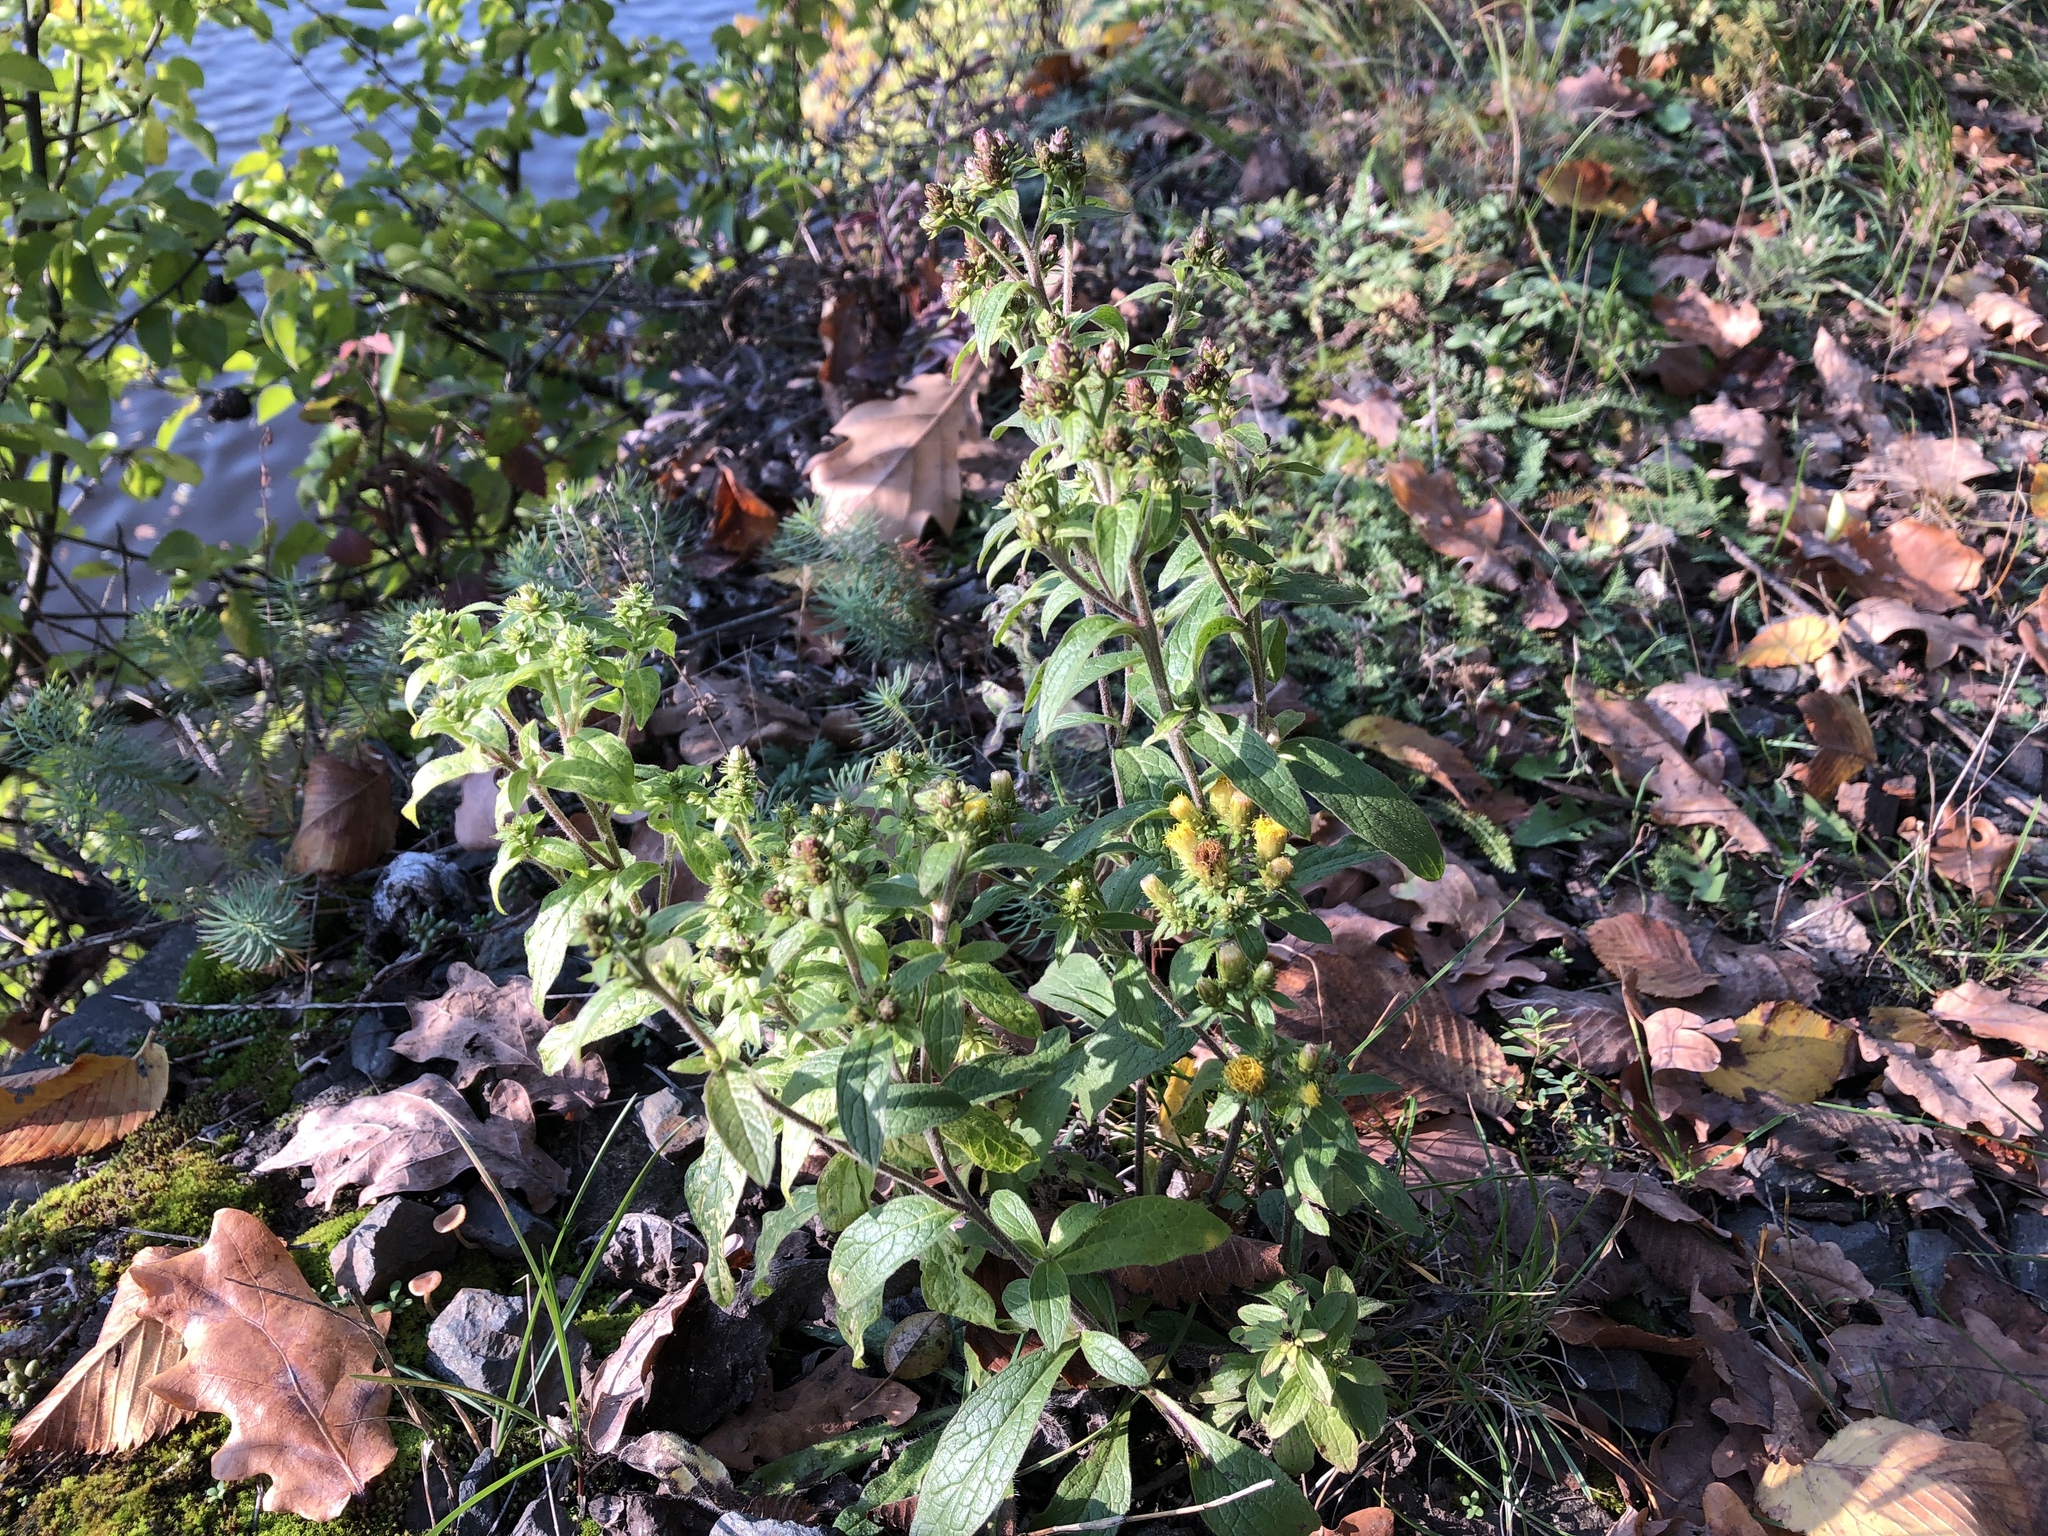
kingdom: Plantae
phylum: Tracheophyta
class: Magnoliopsida
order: Asterales
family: Asteraceae
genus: Pentanema
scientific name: Pentanema squarrosum
